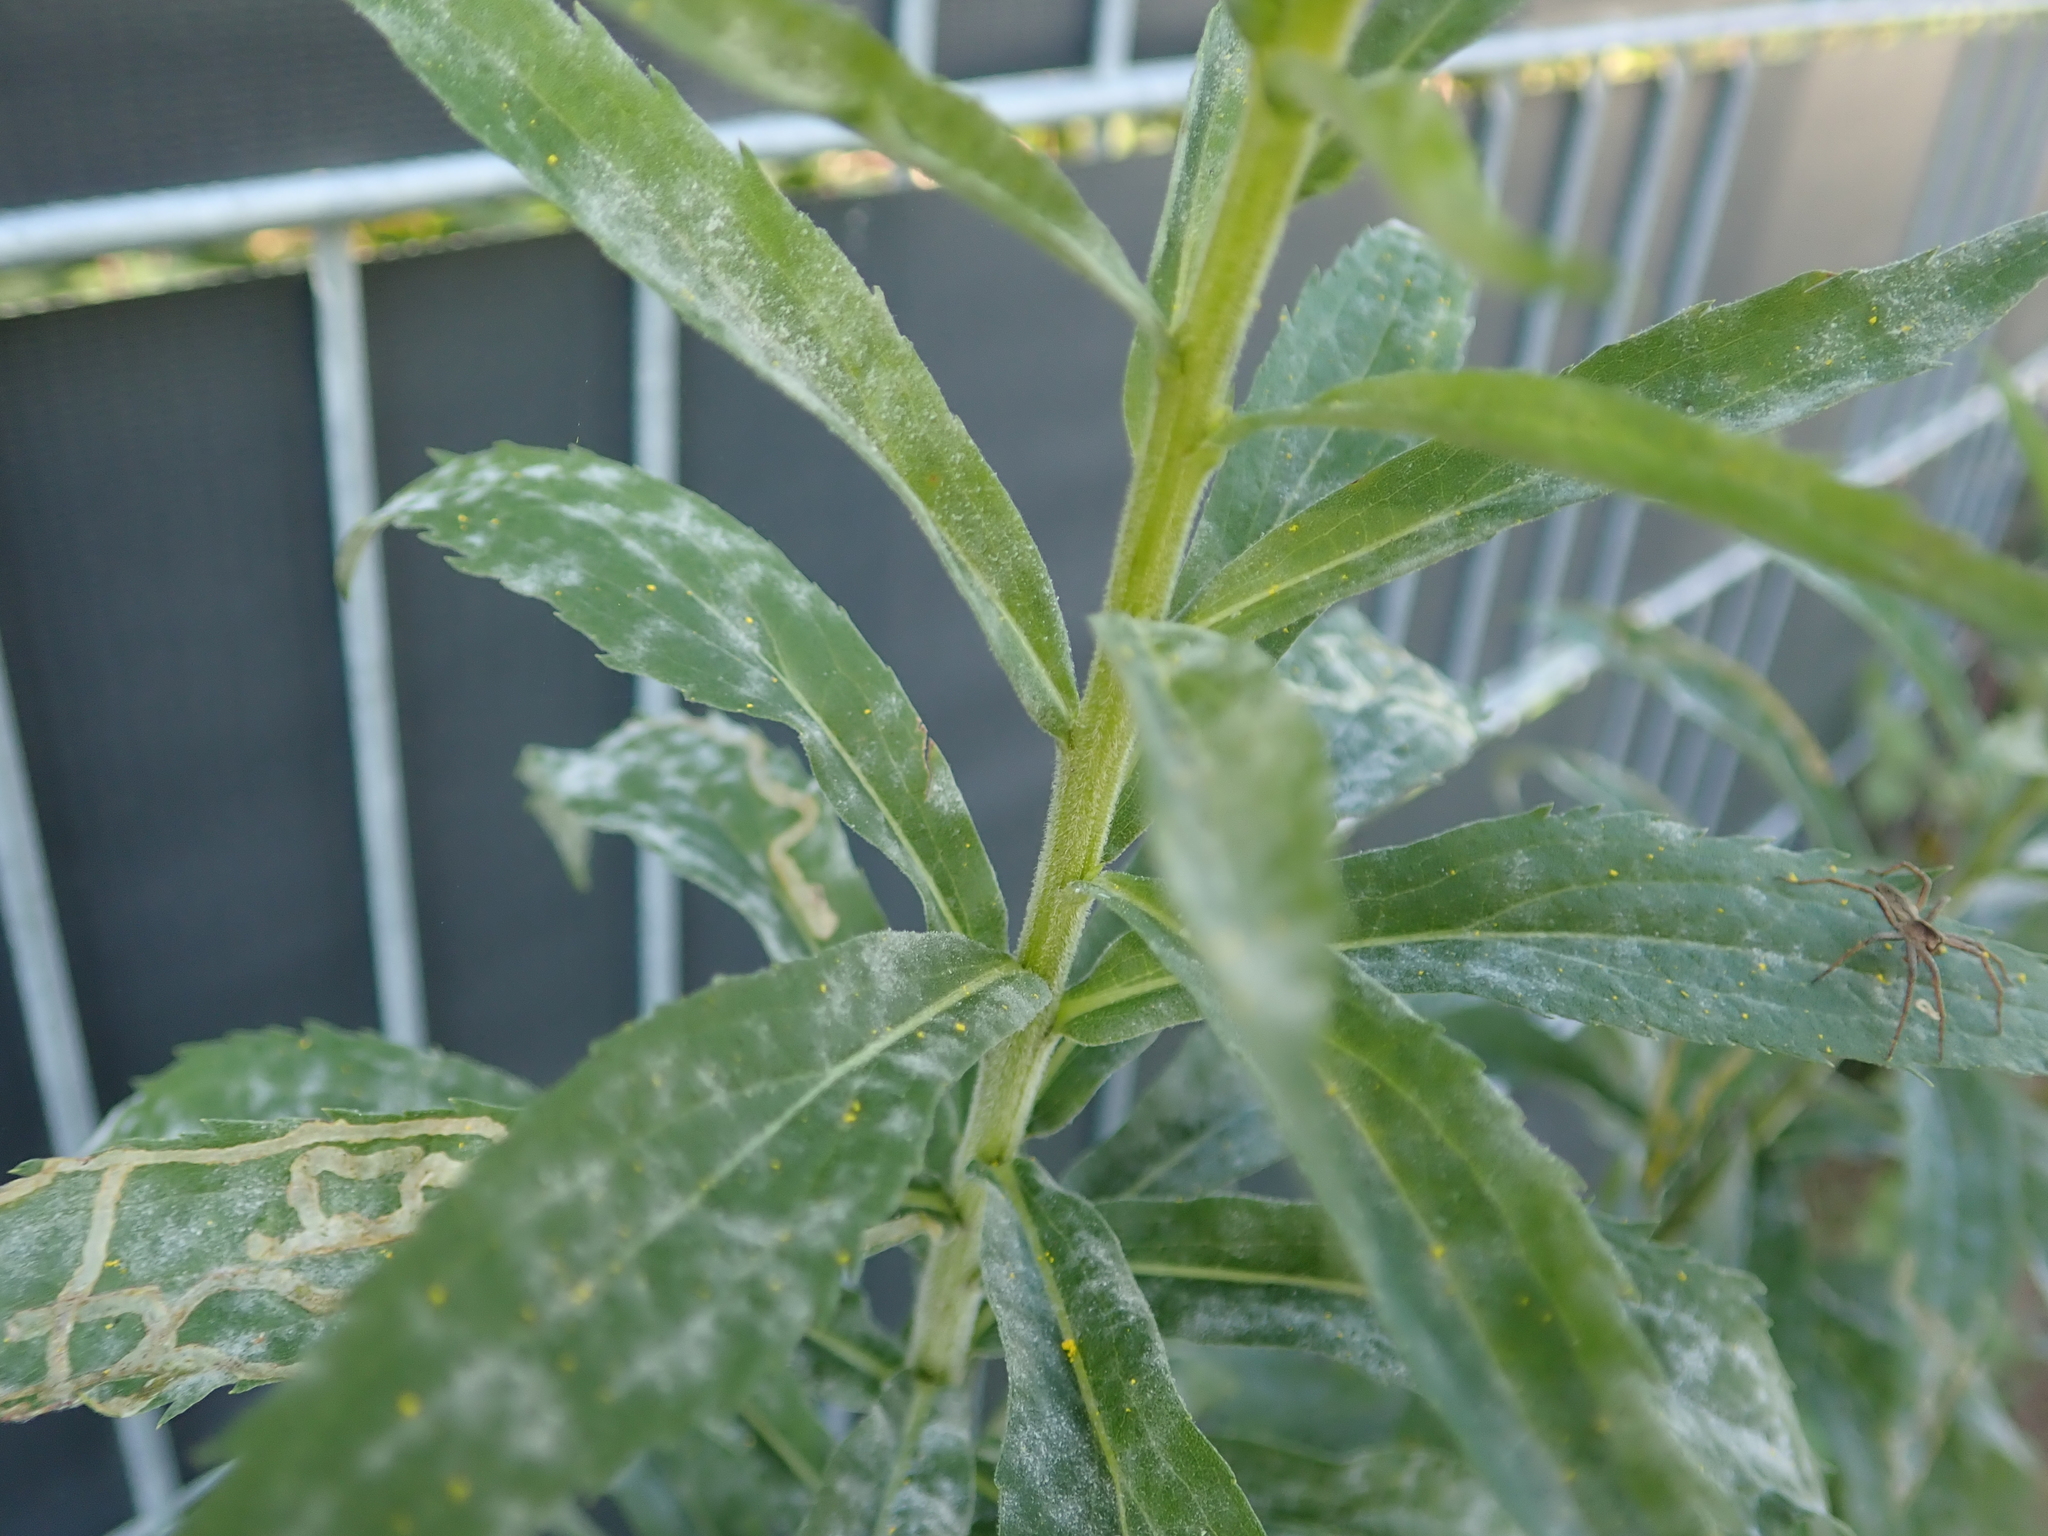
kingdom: Plantae
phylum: Tracheophyta
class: Magnoliopsida
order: Asterales
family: Asteraceae
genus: Solidago
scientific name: Solidago canadensis
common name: Canada goldenrod
